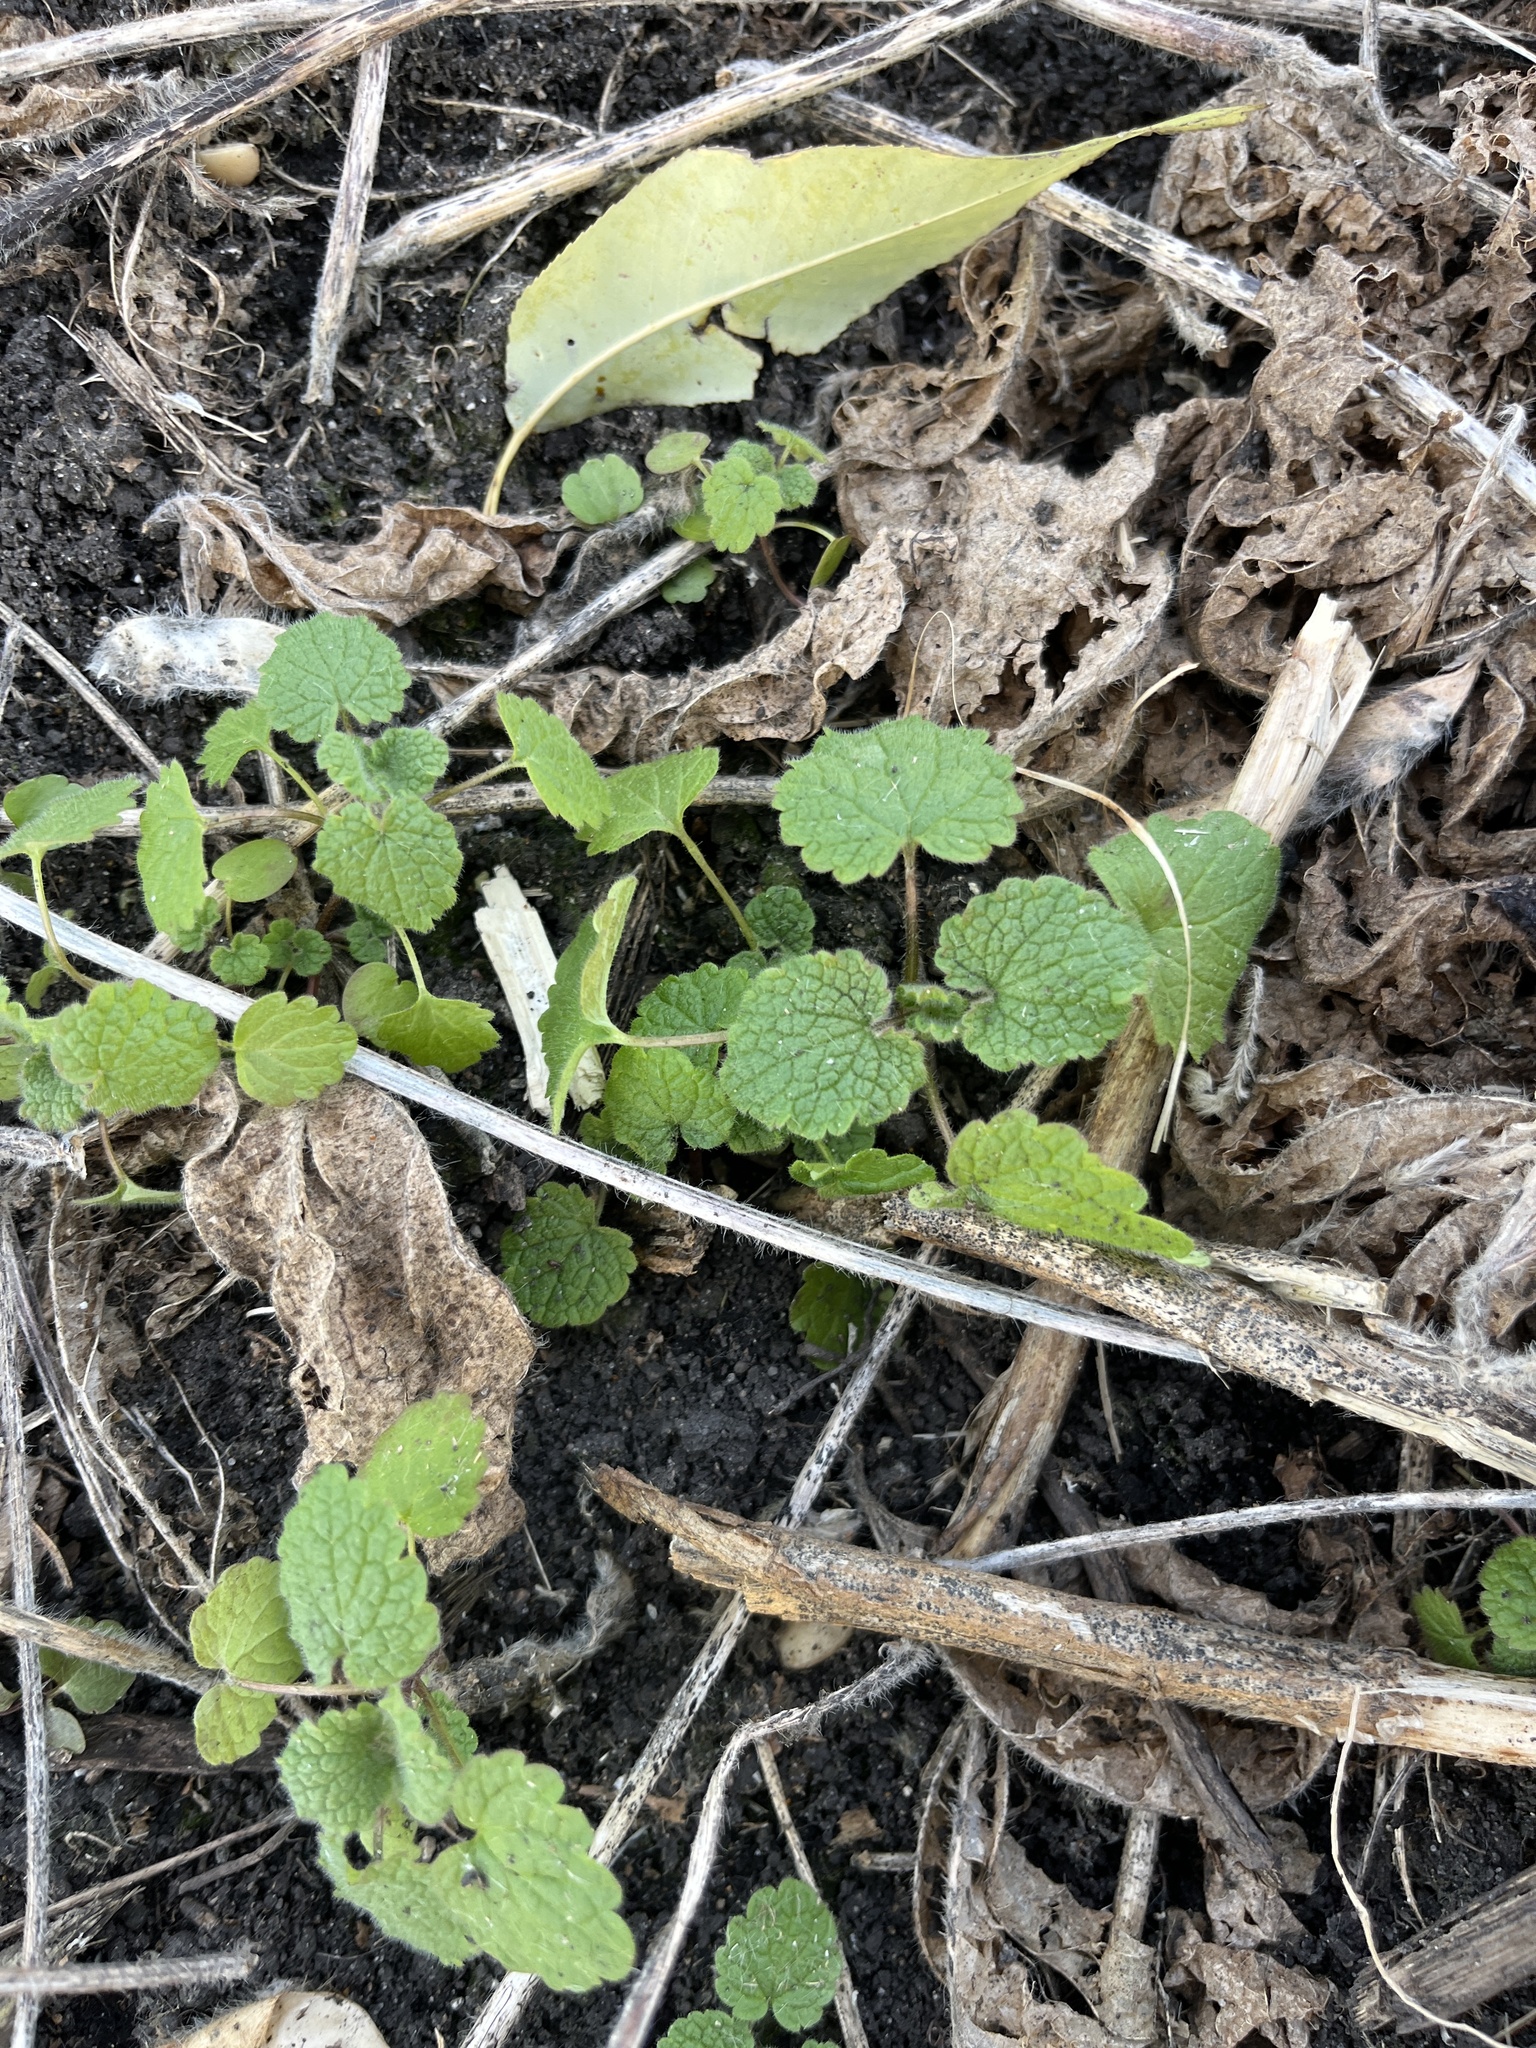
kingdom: Plantae
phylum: Tracheophyta
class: Magnoliopsida
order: Lamiales
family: Lamiaceae
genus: Lamium
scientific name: Lamium purpureum
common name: Red dead-nettle
